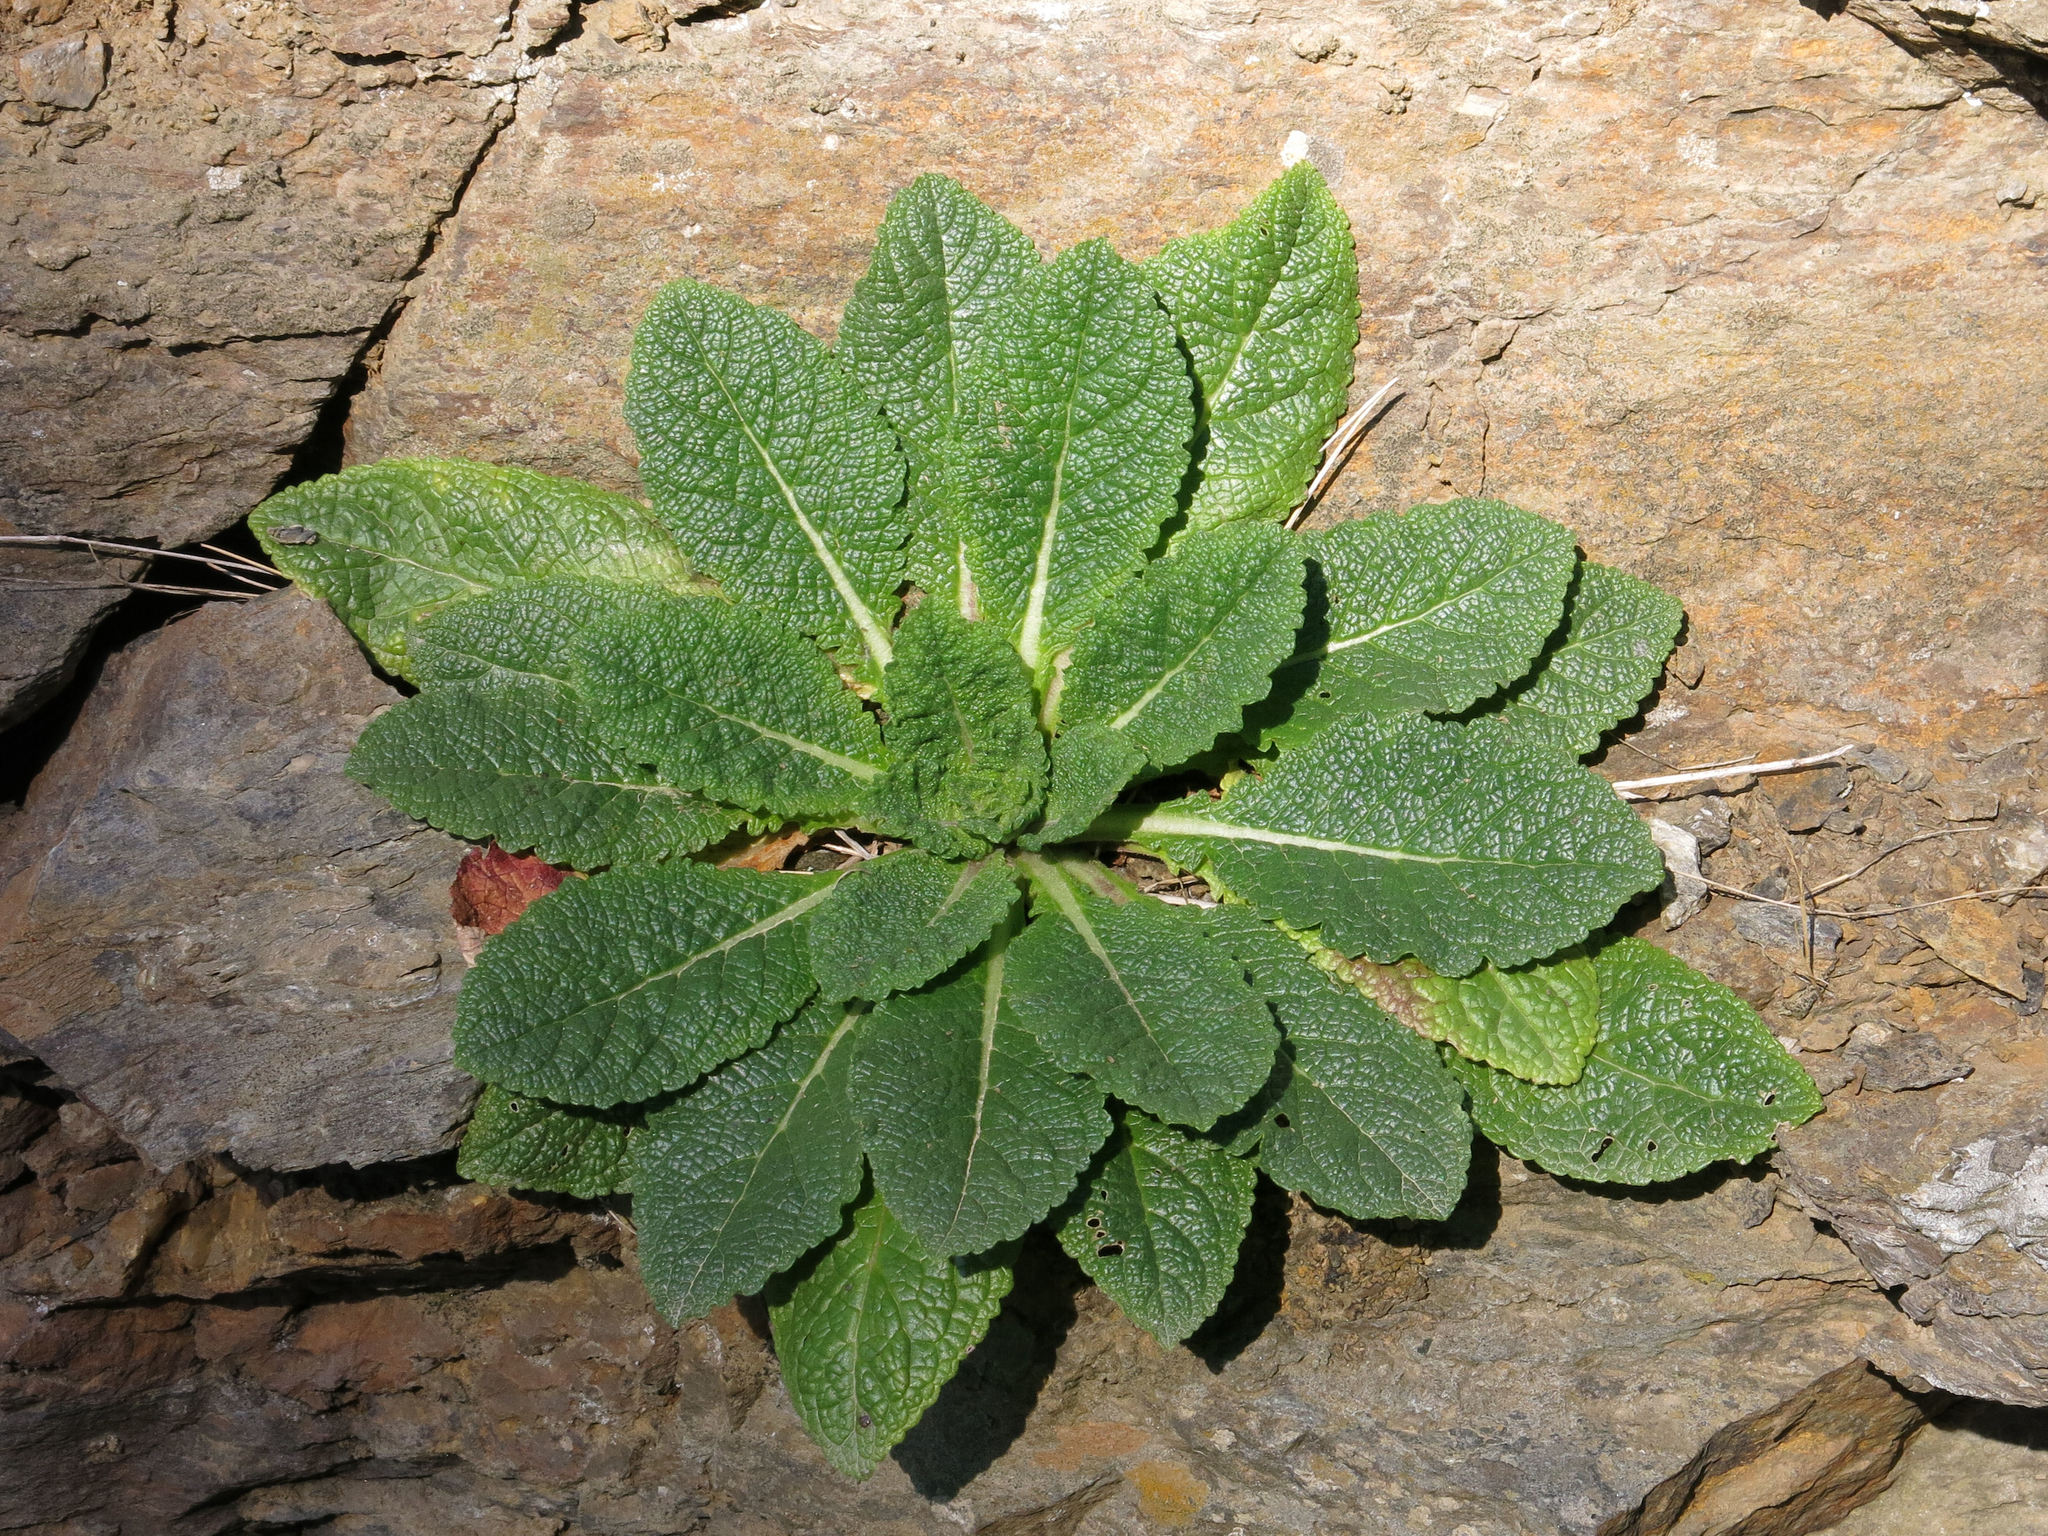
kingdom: Plantae
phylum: Tracheophyta
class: Magnoliopsida
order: Lamiales
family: Scrophulariaceae
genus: Verbascum
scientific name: Verbascum virgatum
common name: Twiggy mullein
